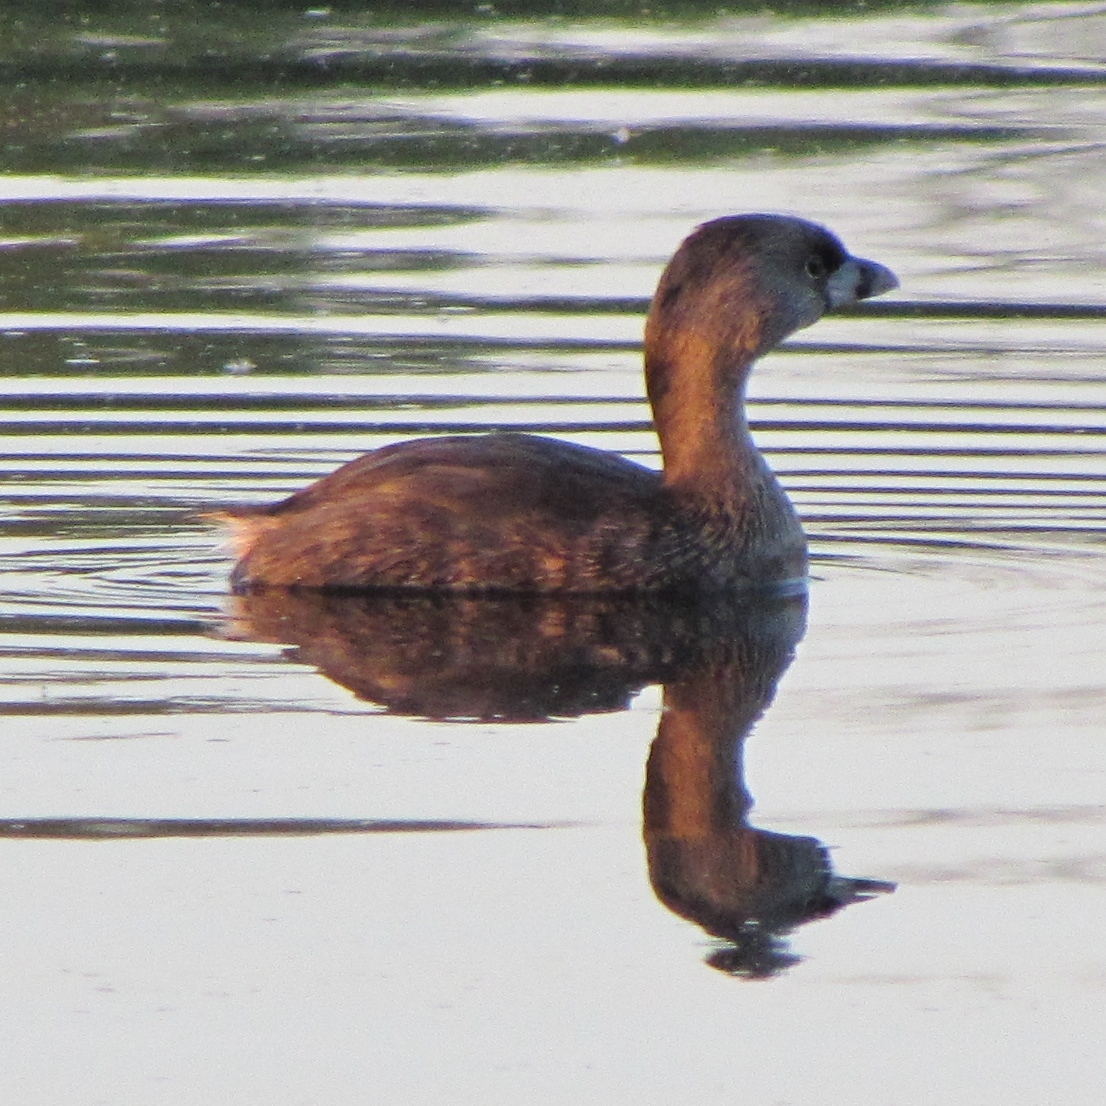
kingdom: Animalia
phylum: Chordata
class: Aves
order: Podicipediformes
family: Podicipedidae
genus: Podilymbus
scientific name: Podilymbus podiceps
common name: Pied-billed grebe
